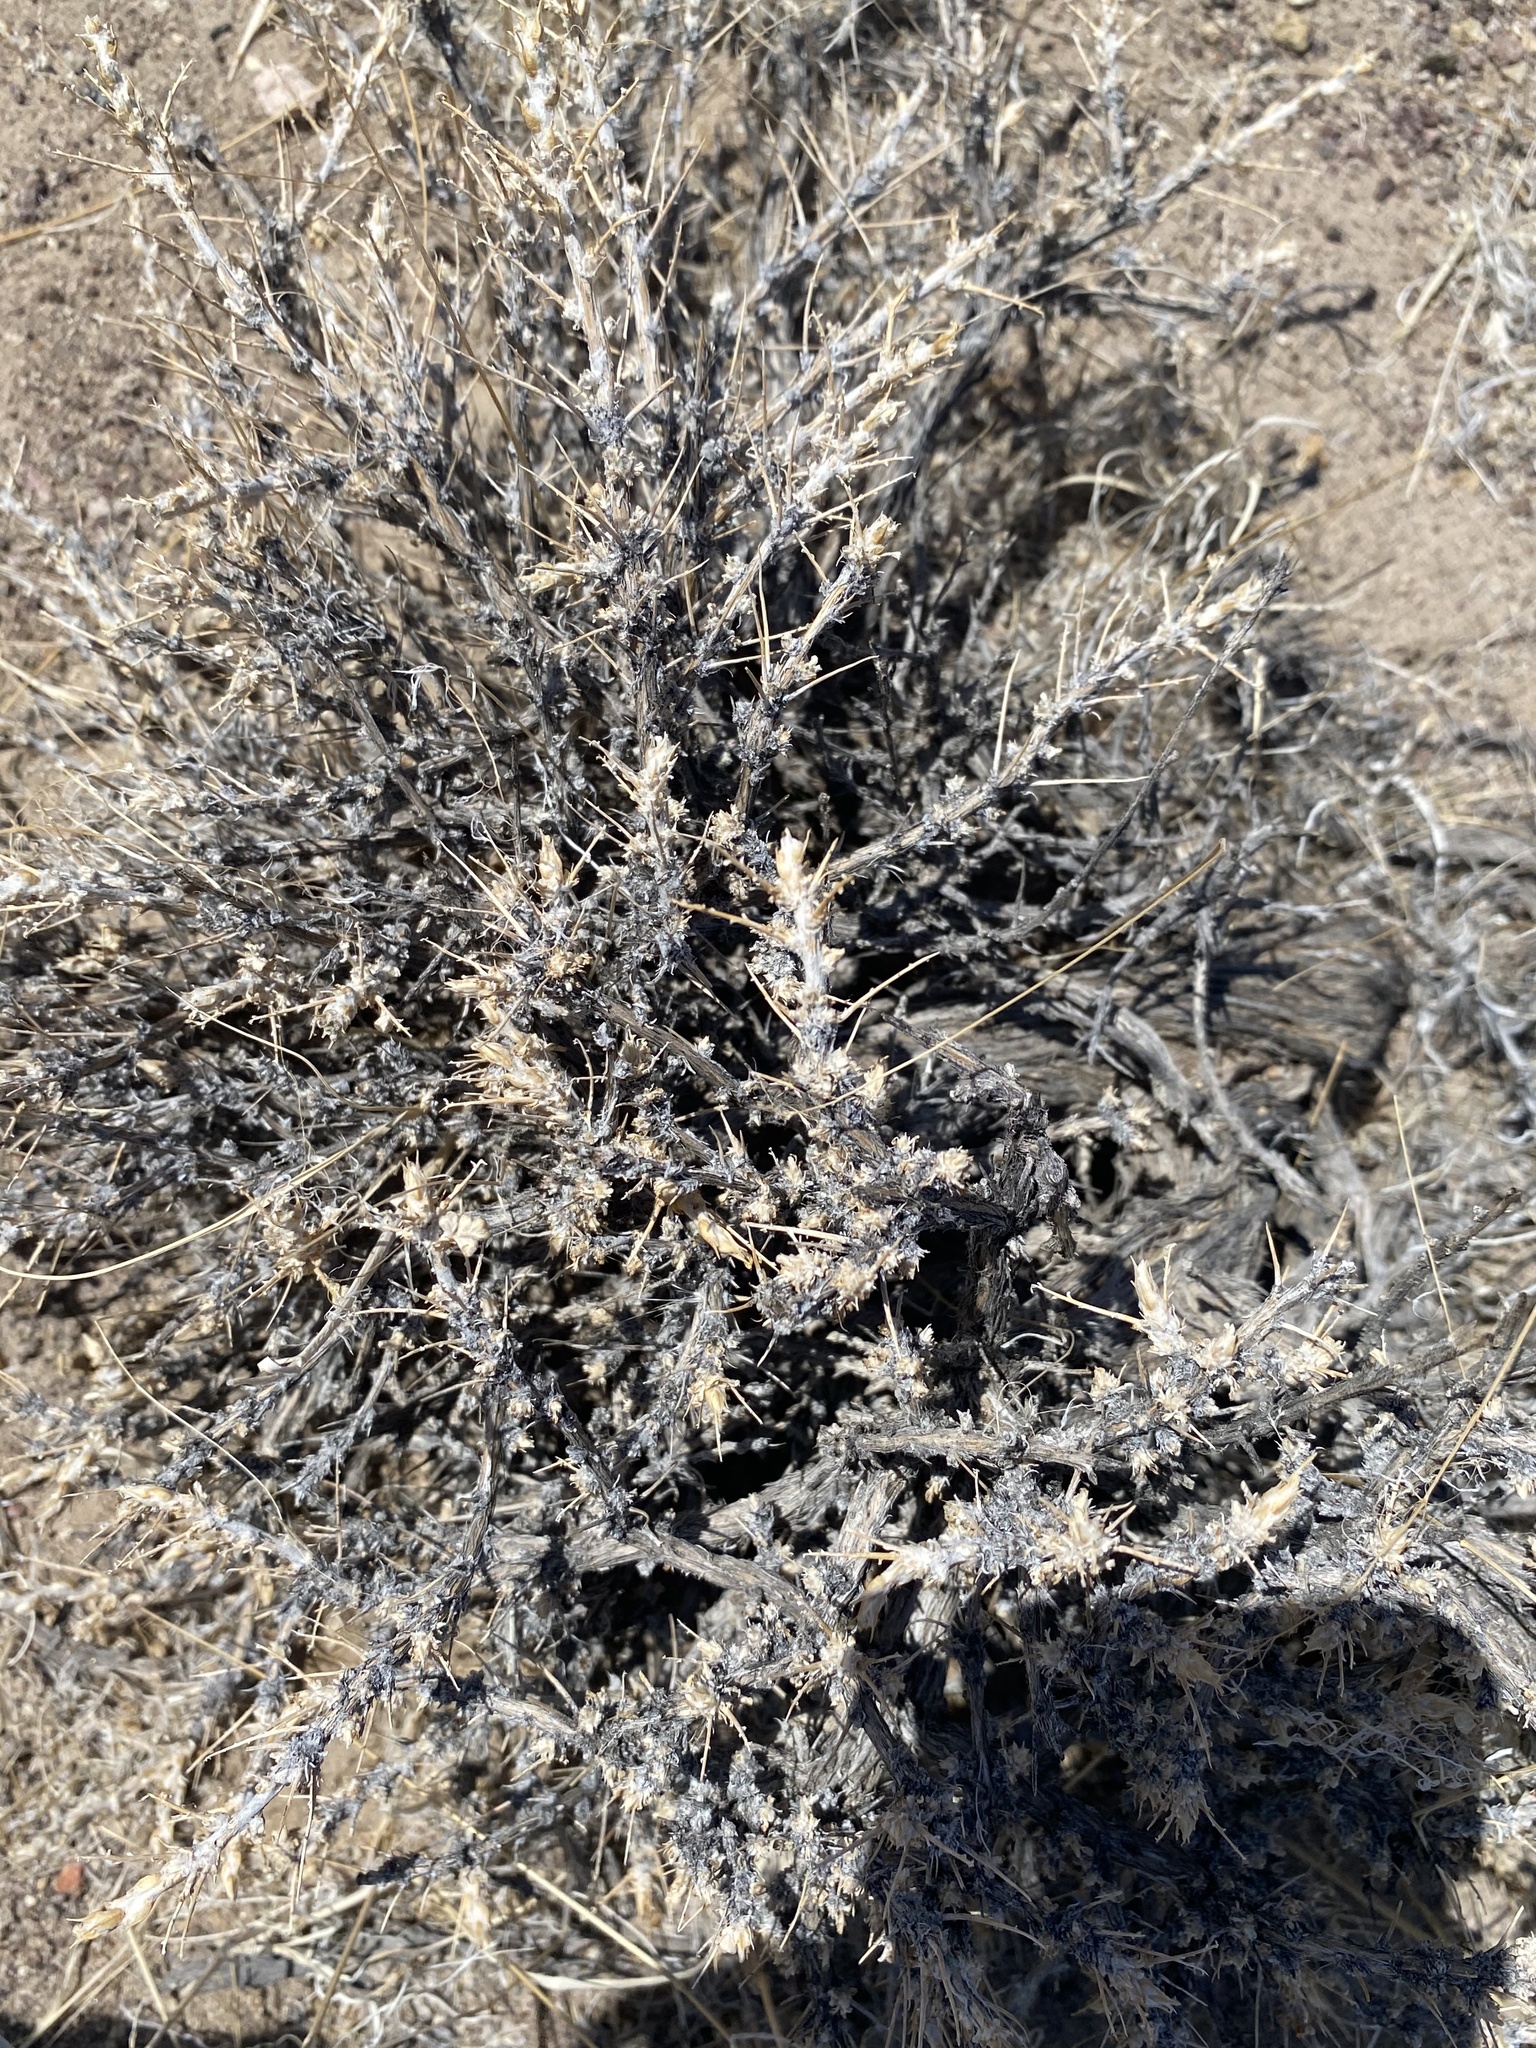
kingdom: Plantae
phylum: Tracheophyta
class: Magnoliopsida
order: Asterales
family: Asteraceae
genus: Artemisia
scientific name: Artemisia spinescens
